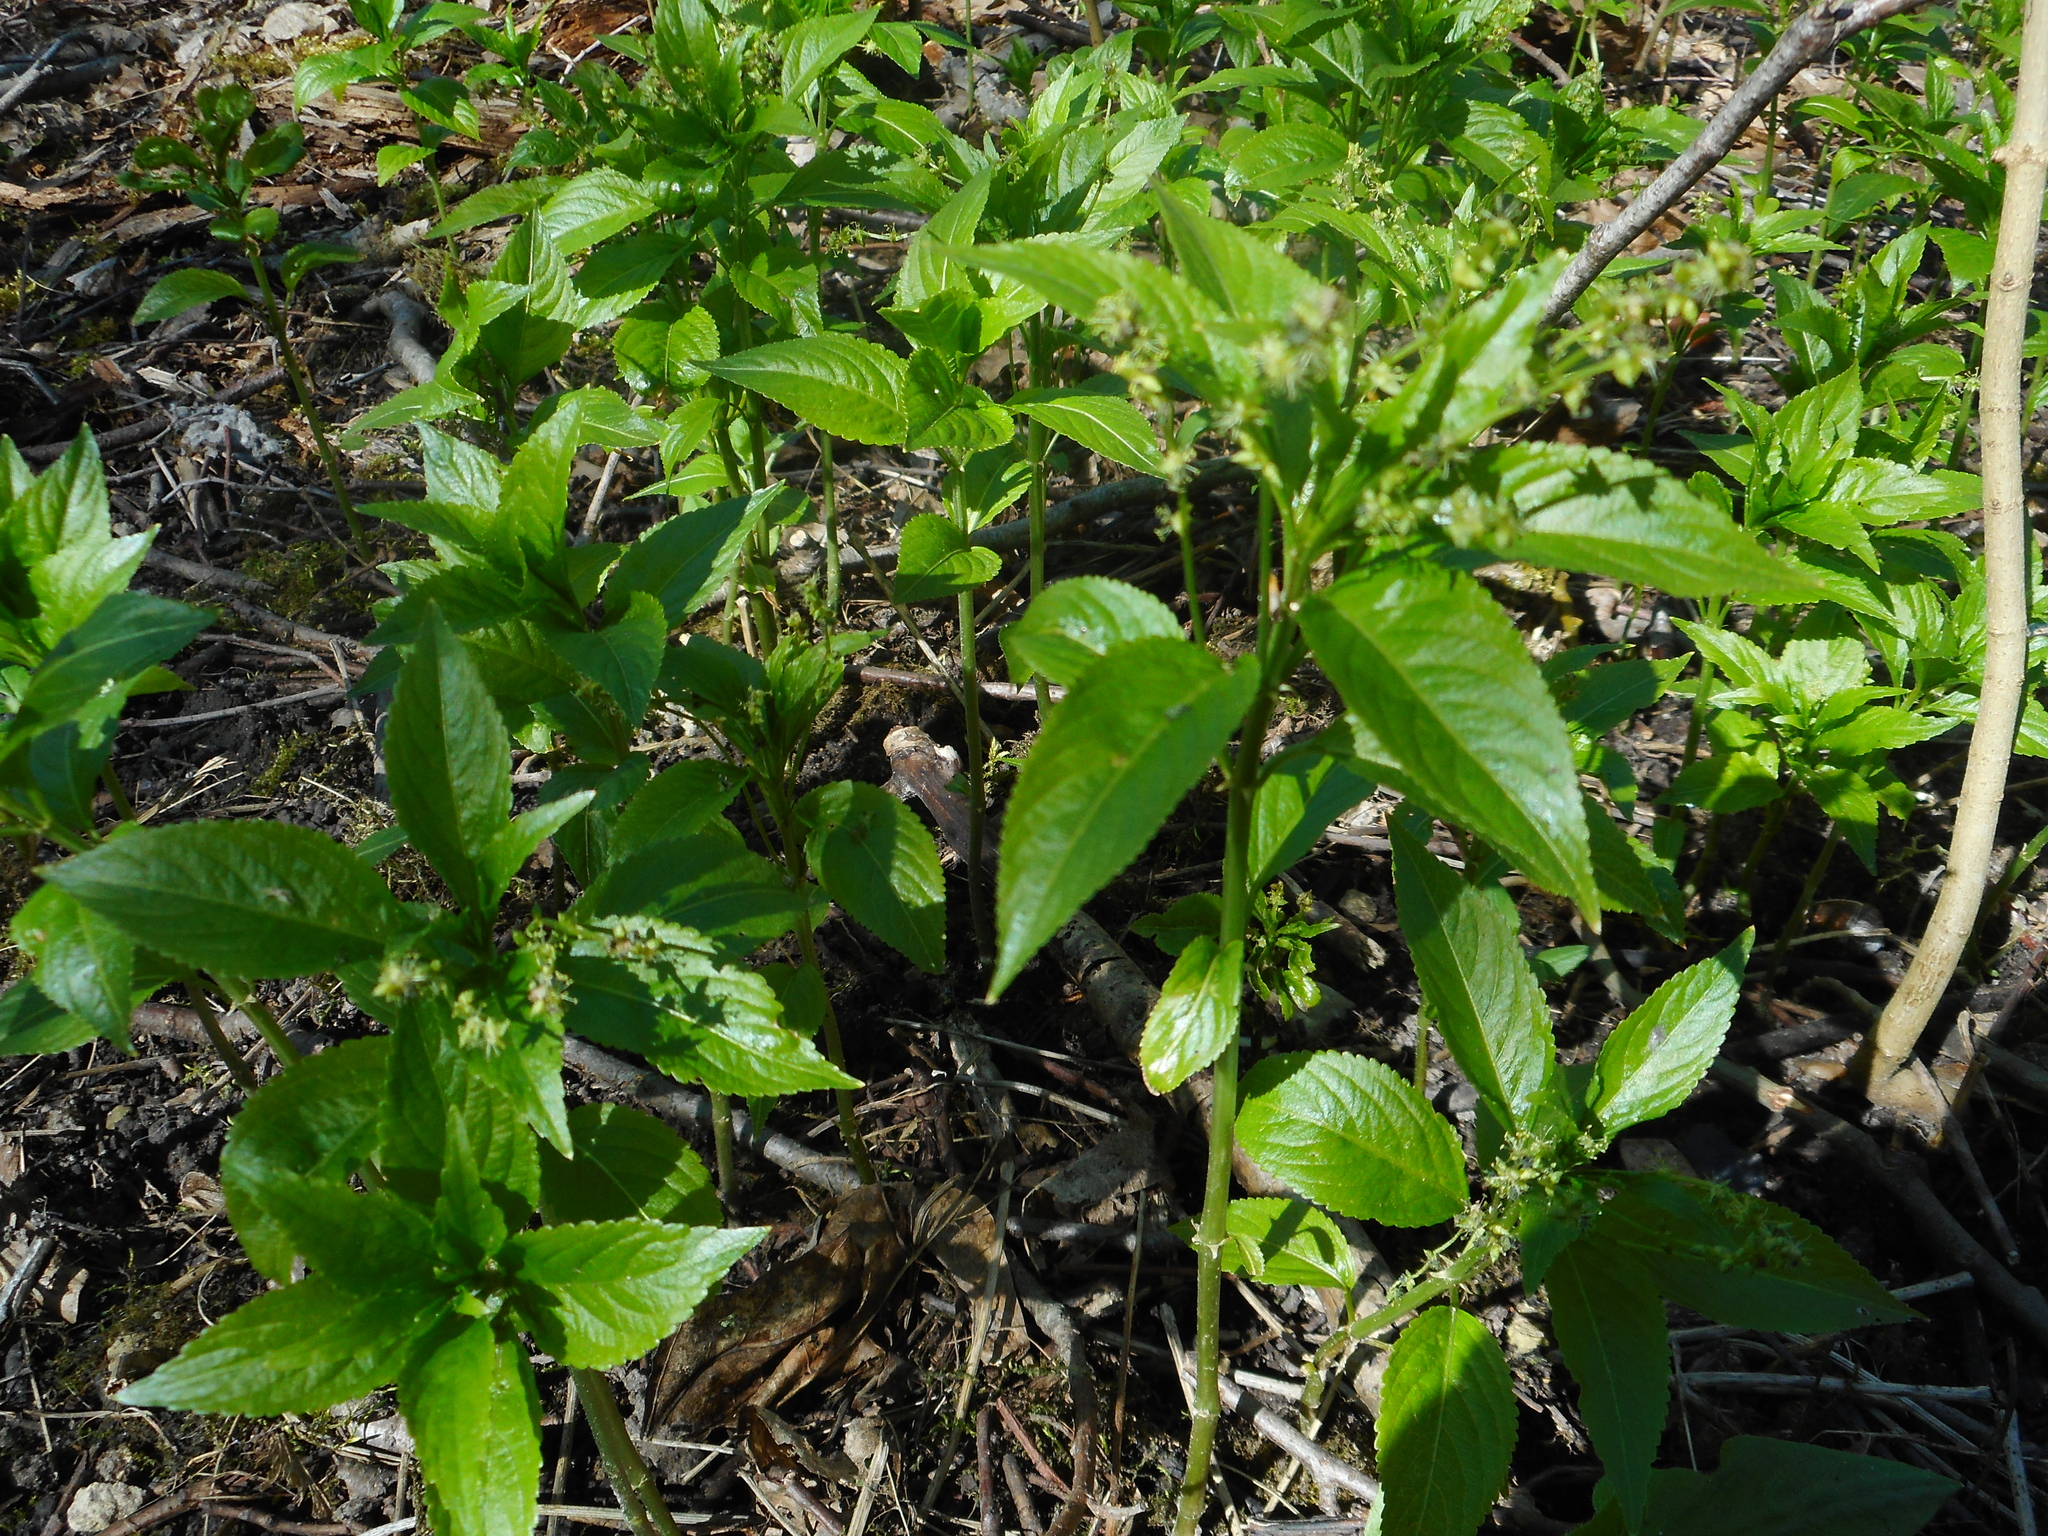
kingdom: Plantae
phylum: Tracheophyta
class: Magnoliopsida
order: Malpighiales
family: Euphorbiaceae
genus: Mercurialis
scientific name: Mercurialis perennis
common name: Dog mercury
